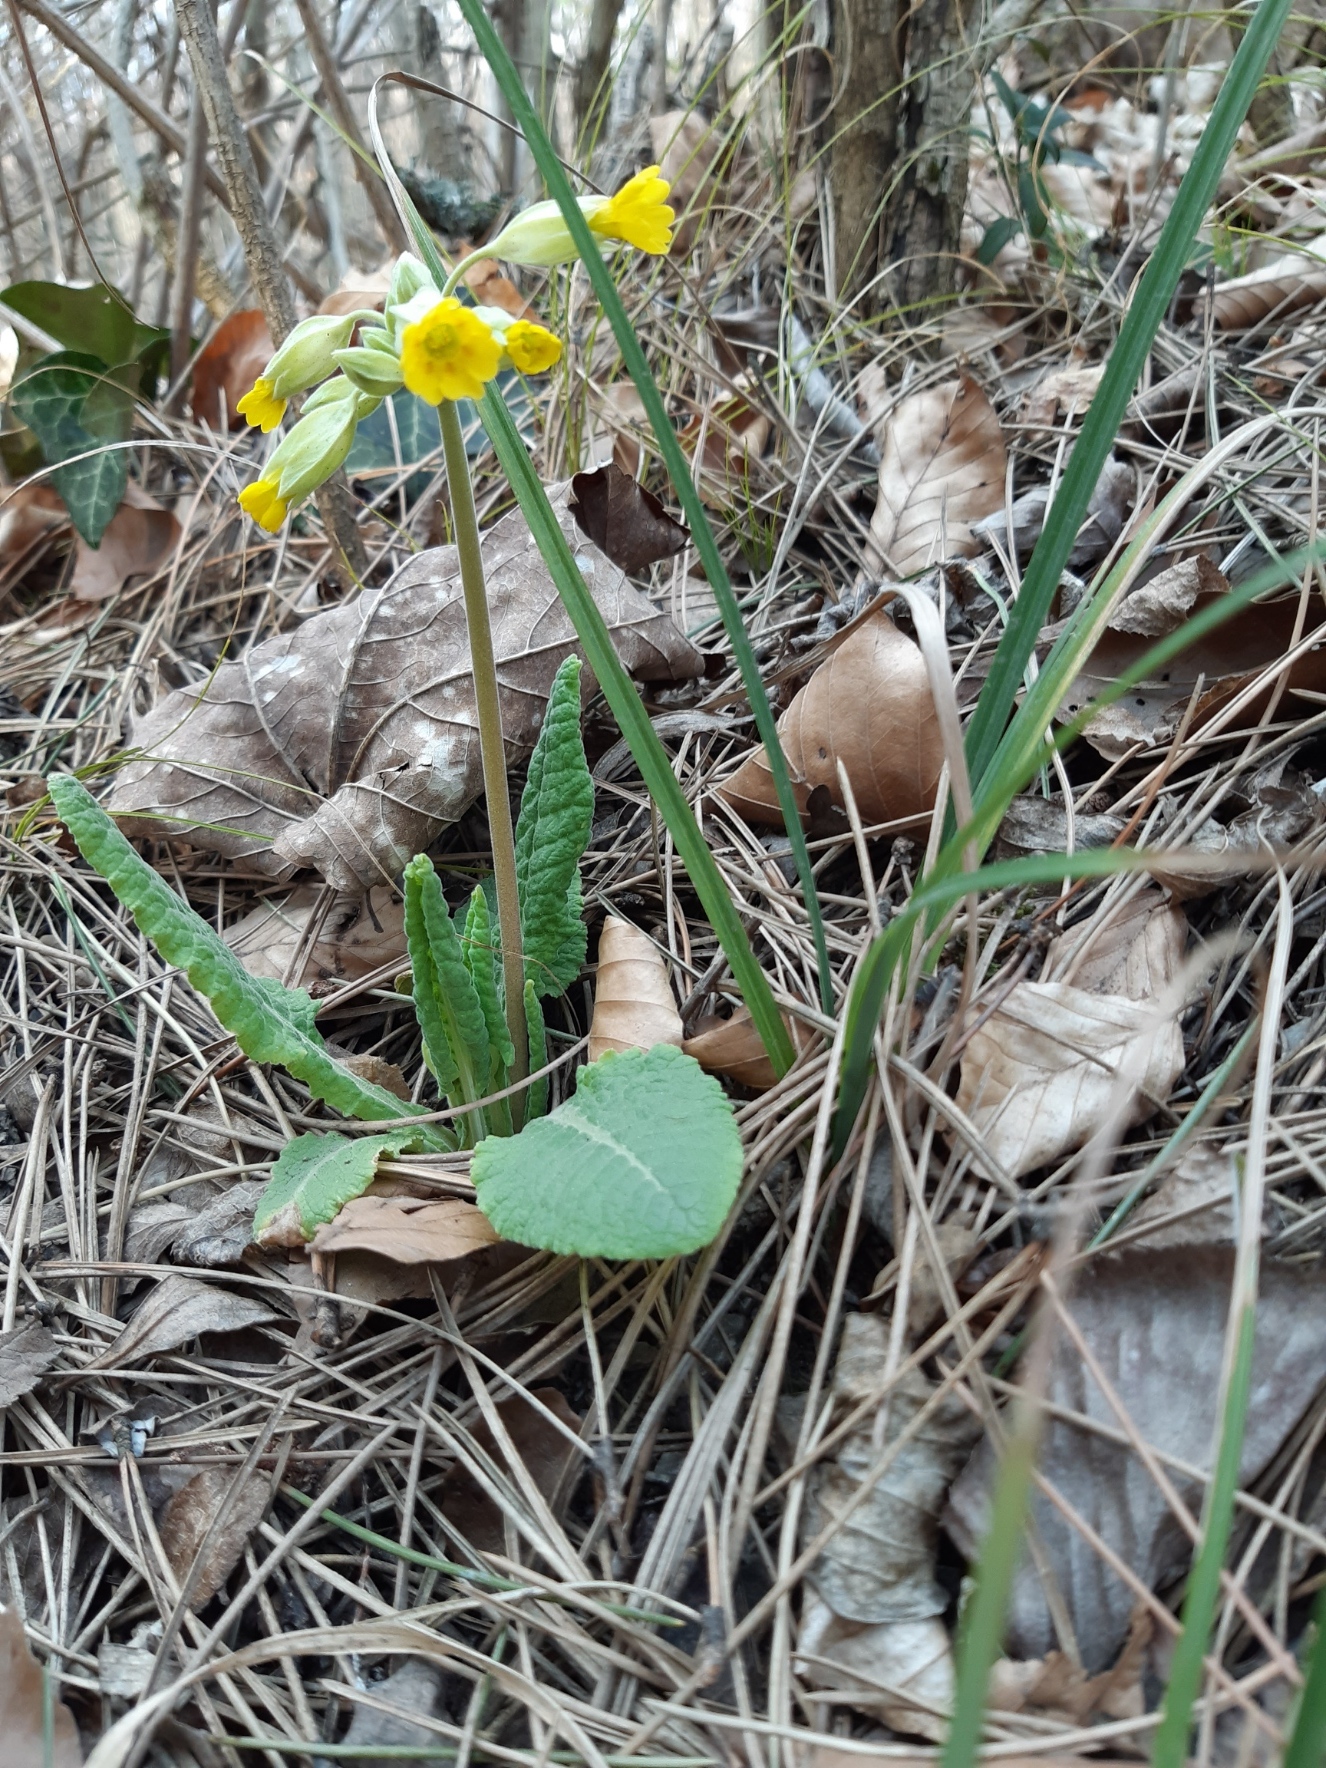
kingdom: Plantae
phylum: Tracheophyta
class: Magnoliopsida
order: Ericales
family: Primulaceae
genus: Primula
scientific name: Primula veris
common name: Cowslip
